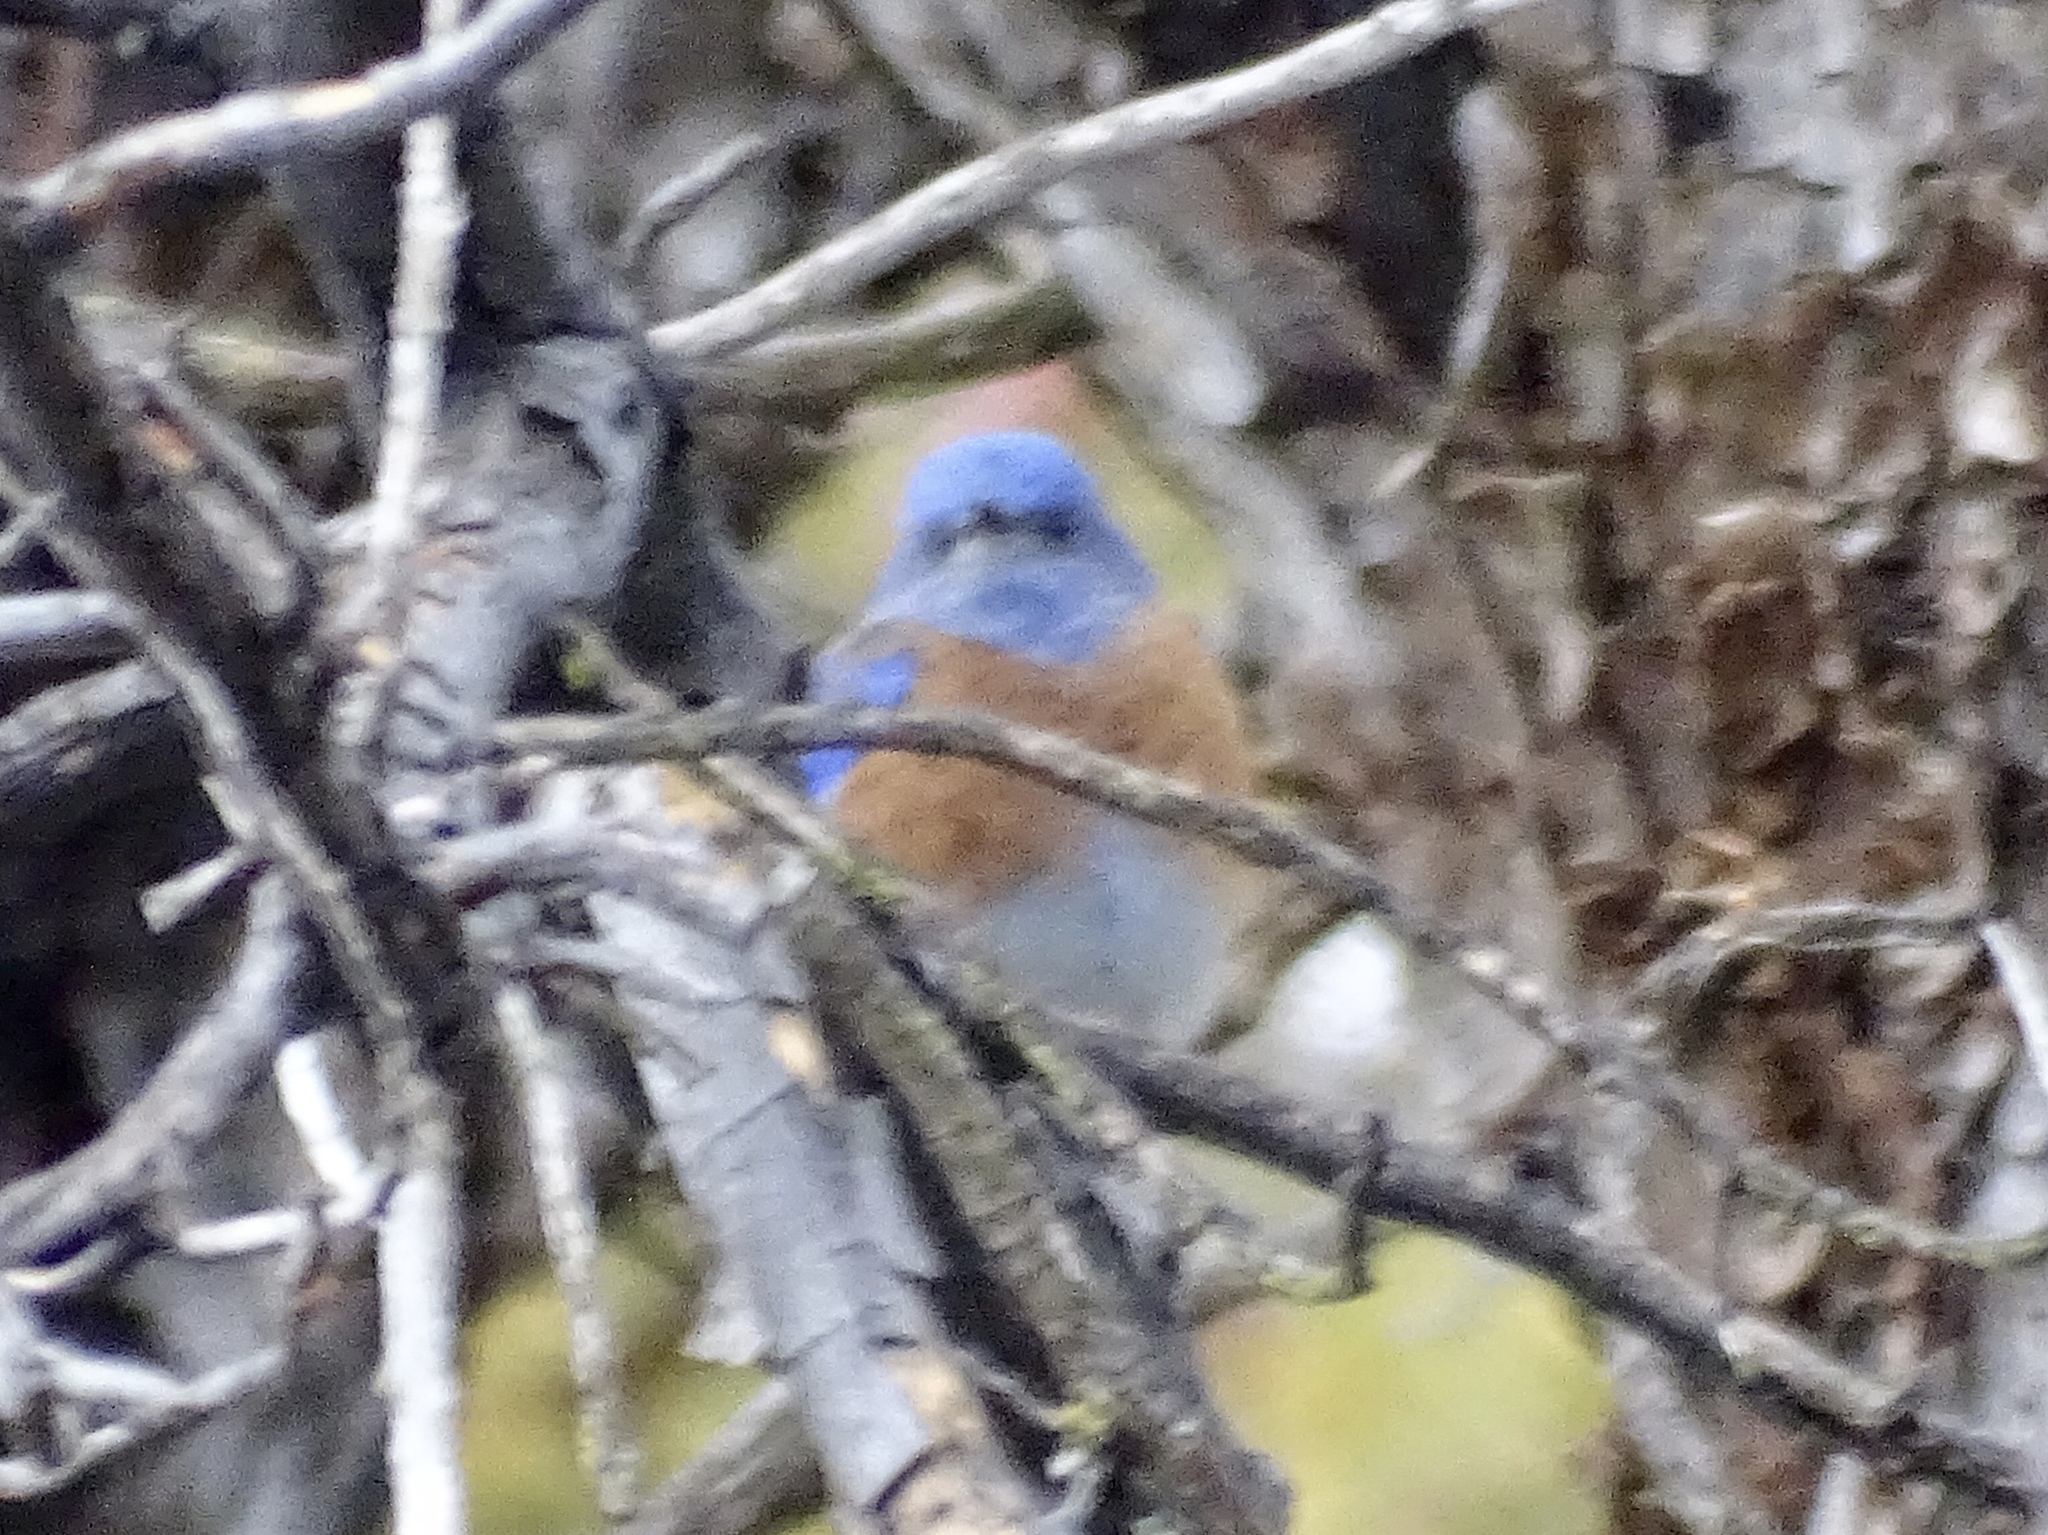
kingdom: Animalia
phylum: Chordata
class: Aves
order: Passeriformes
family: Turdidae
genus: Sialia
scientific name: Sialia mexicana
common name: Western bluebird
